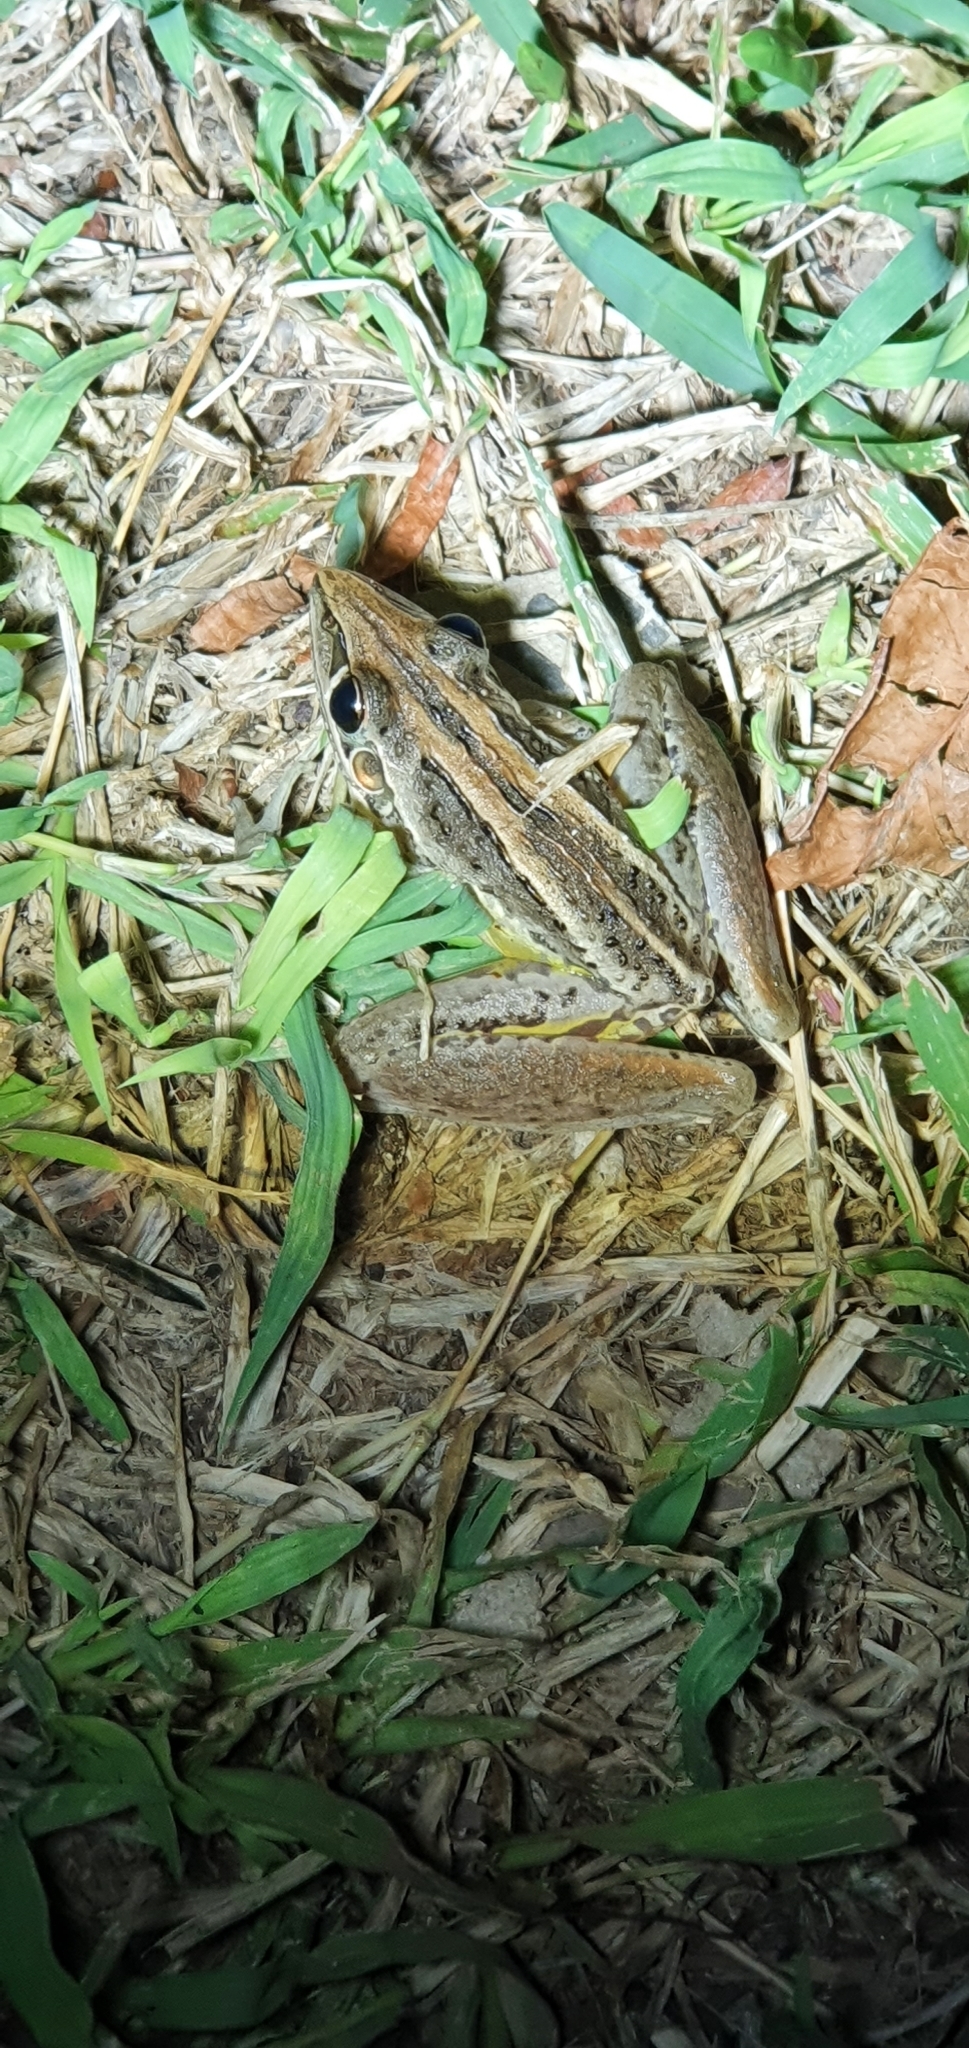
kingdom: Animalia
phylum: Chordata
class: Amphibia
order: Anura
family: Pelodryadidae
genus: Litoria
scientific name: Litoria nasuta
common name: Rocket frog
